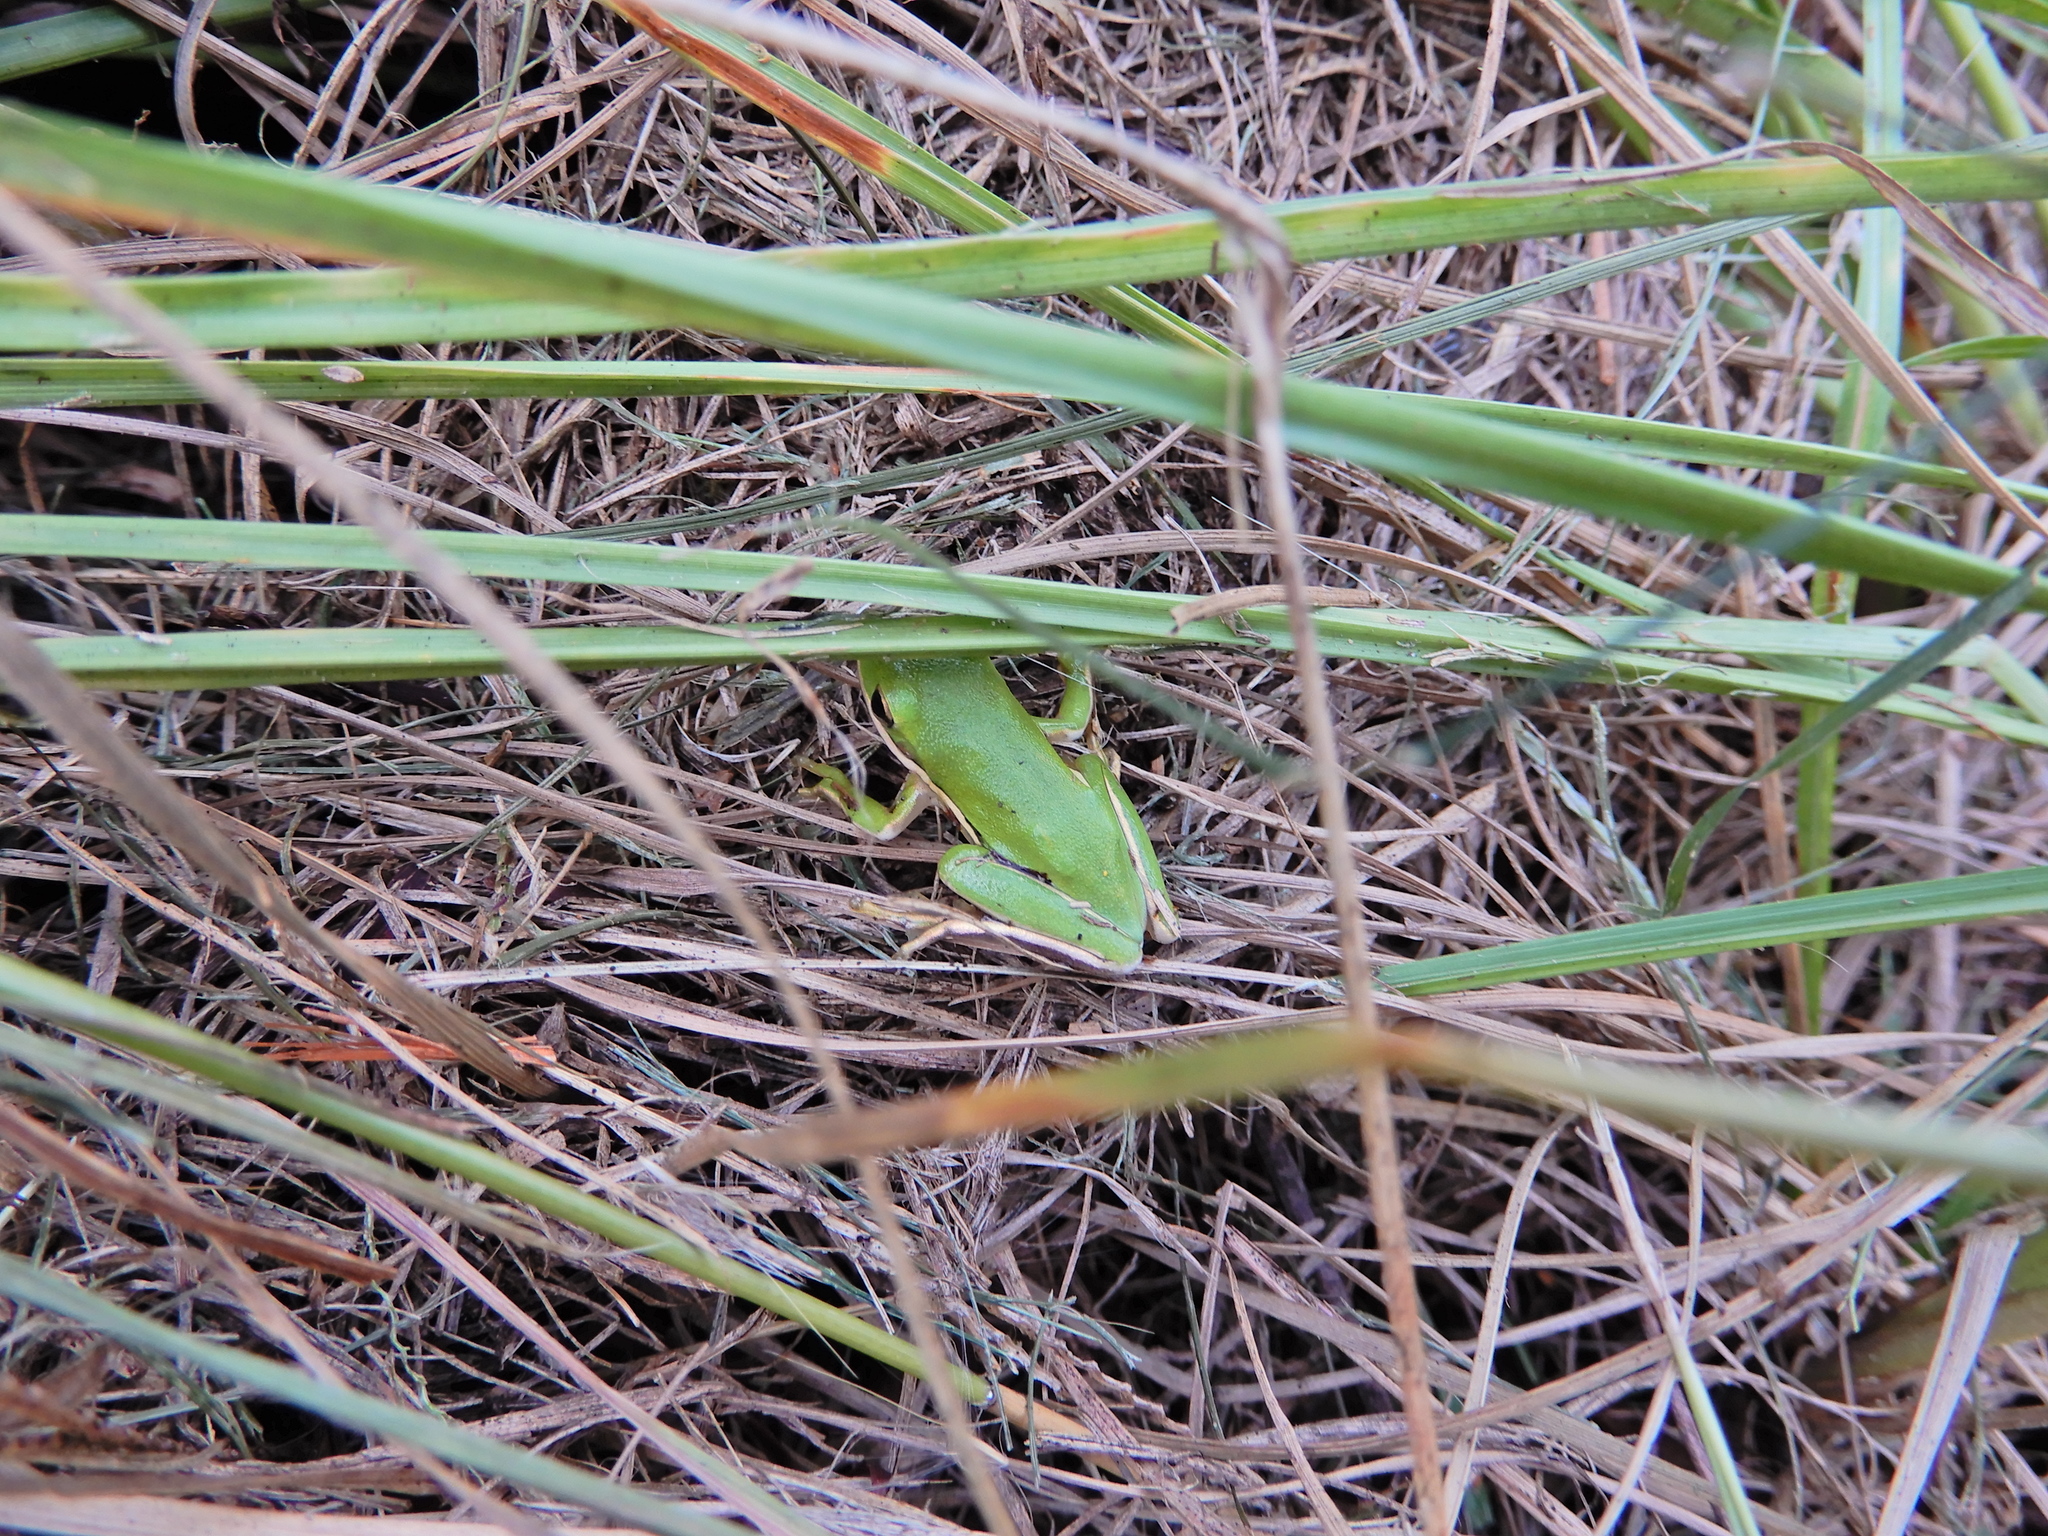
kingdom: Animalia
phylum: Chordata
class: Amphibia
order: Anura
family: Hylidae
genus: Dryophytes
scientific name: Dryophytes cinereus
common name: Green treefrog
